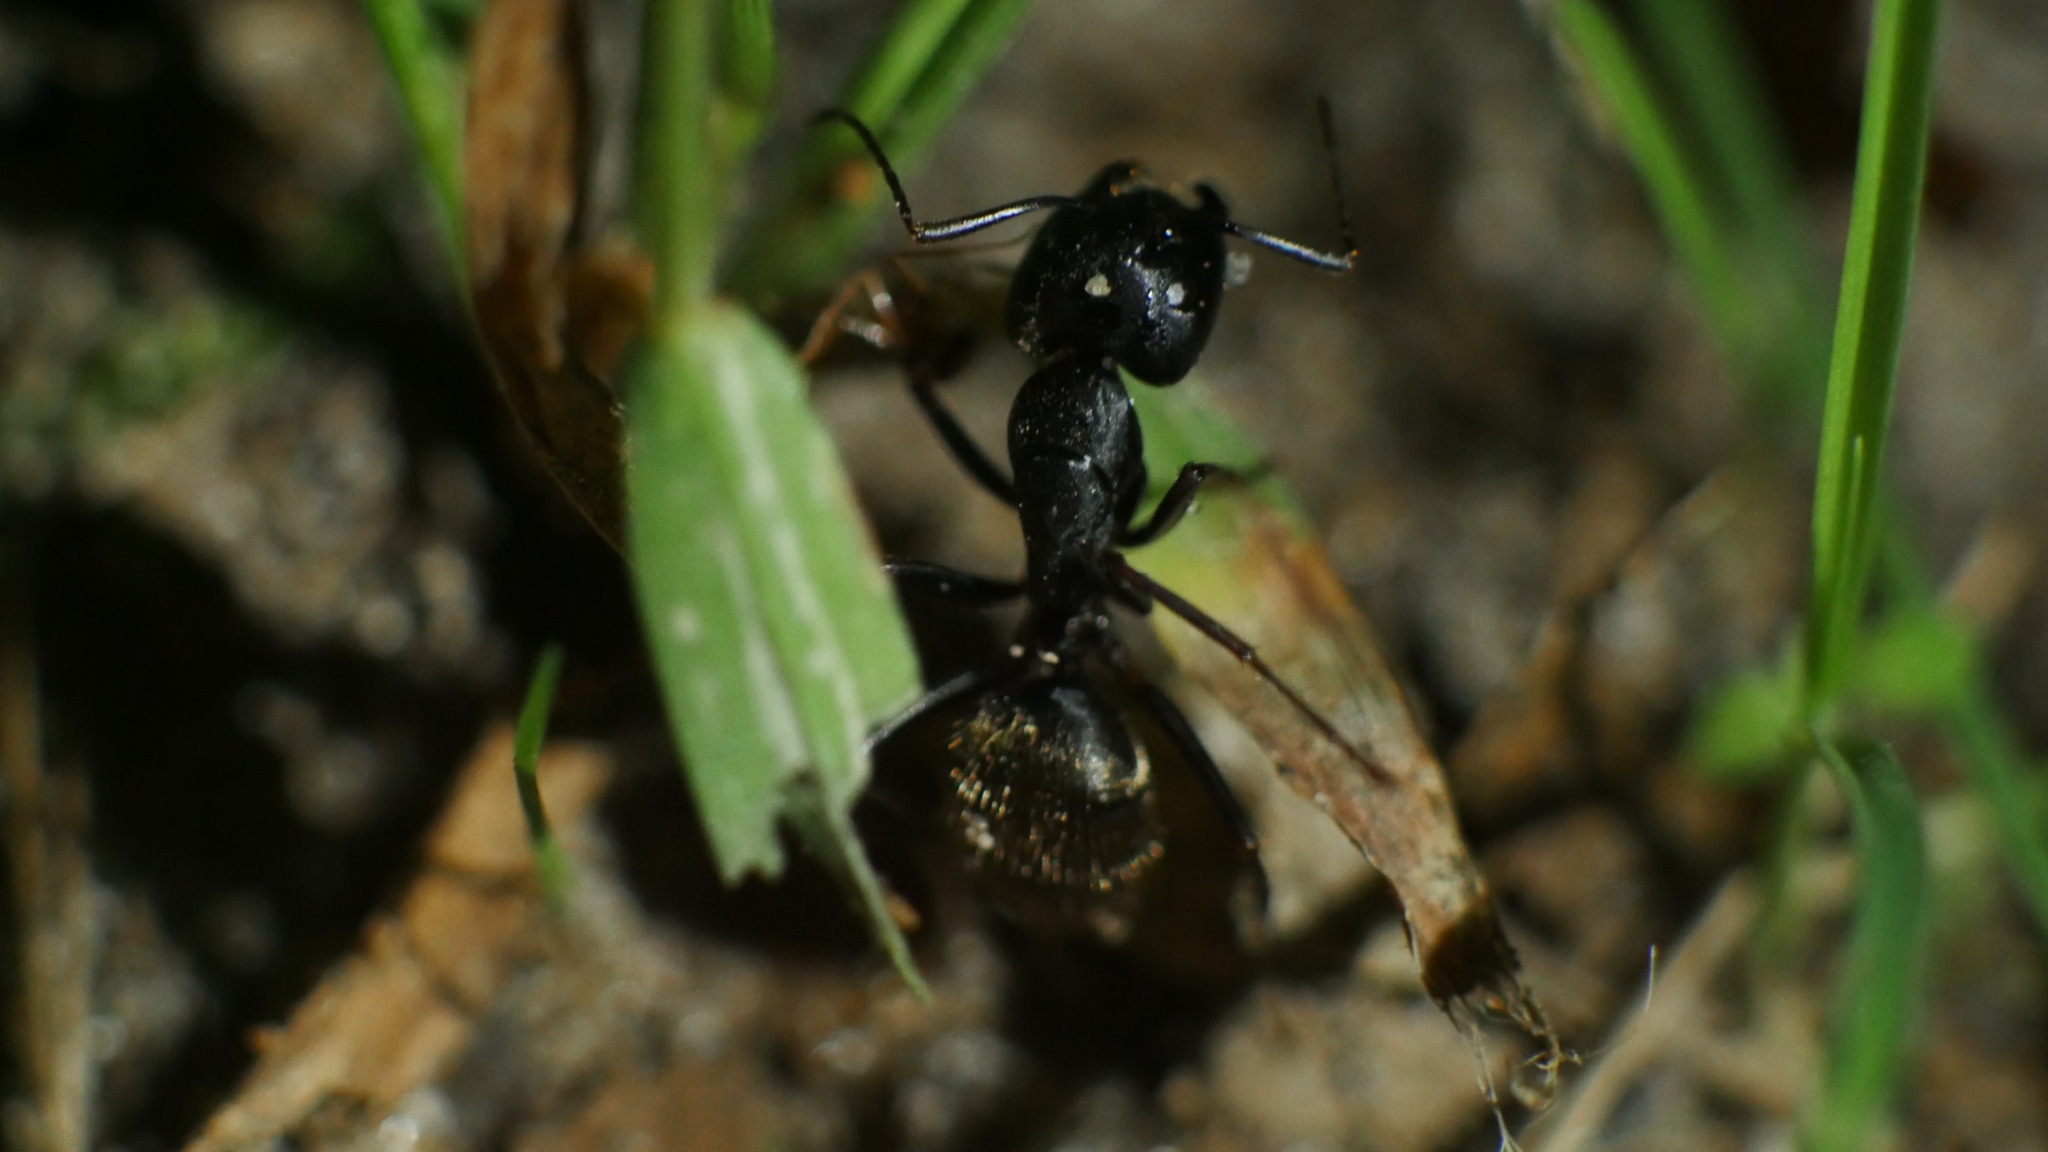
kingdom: Animalia
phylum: Arthropoda
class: Insecta
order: Hymenoptera
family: Formicidae
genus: Camponotus
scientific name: Camponotus pennsylvanicus
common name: Black carpenter ant
